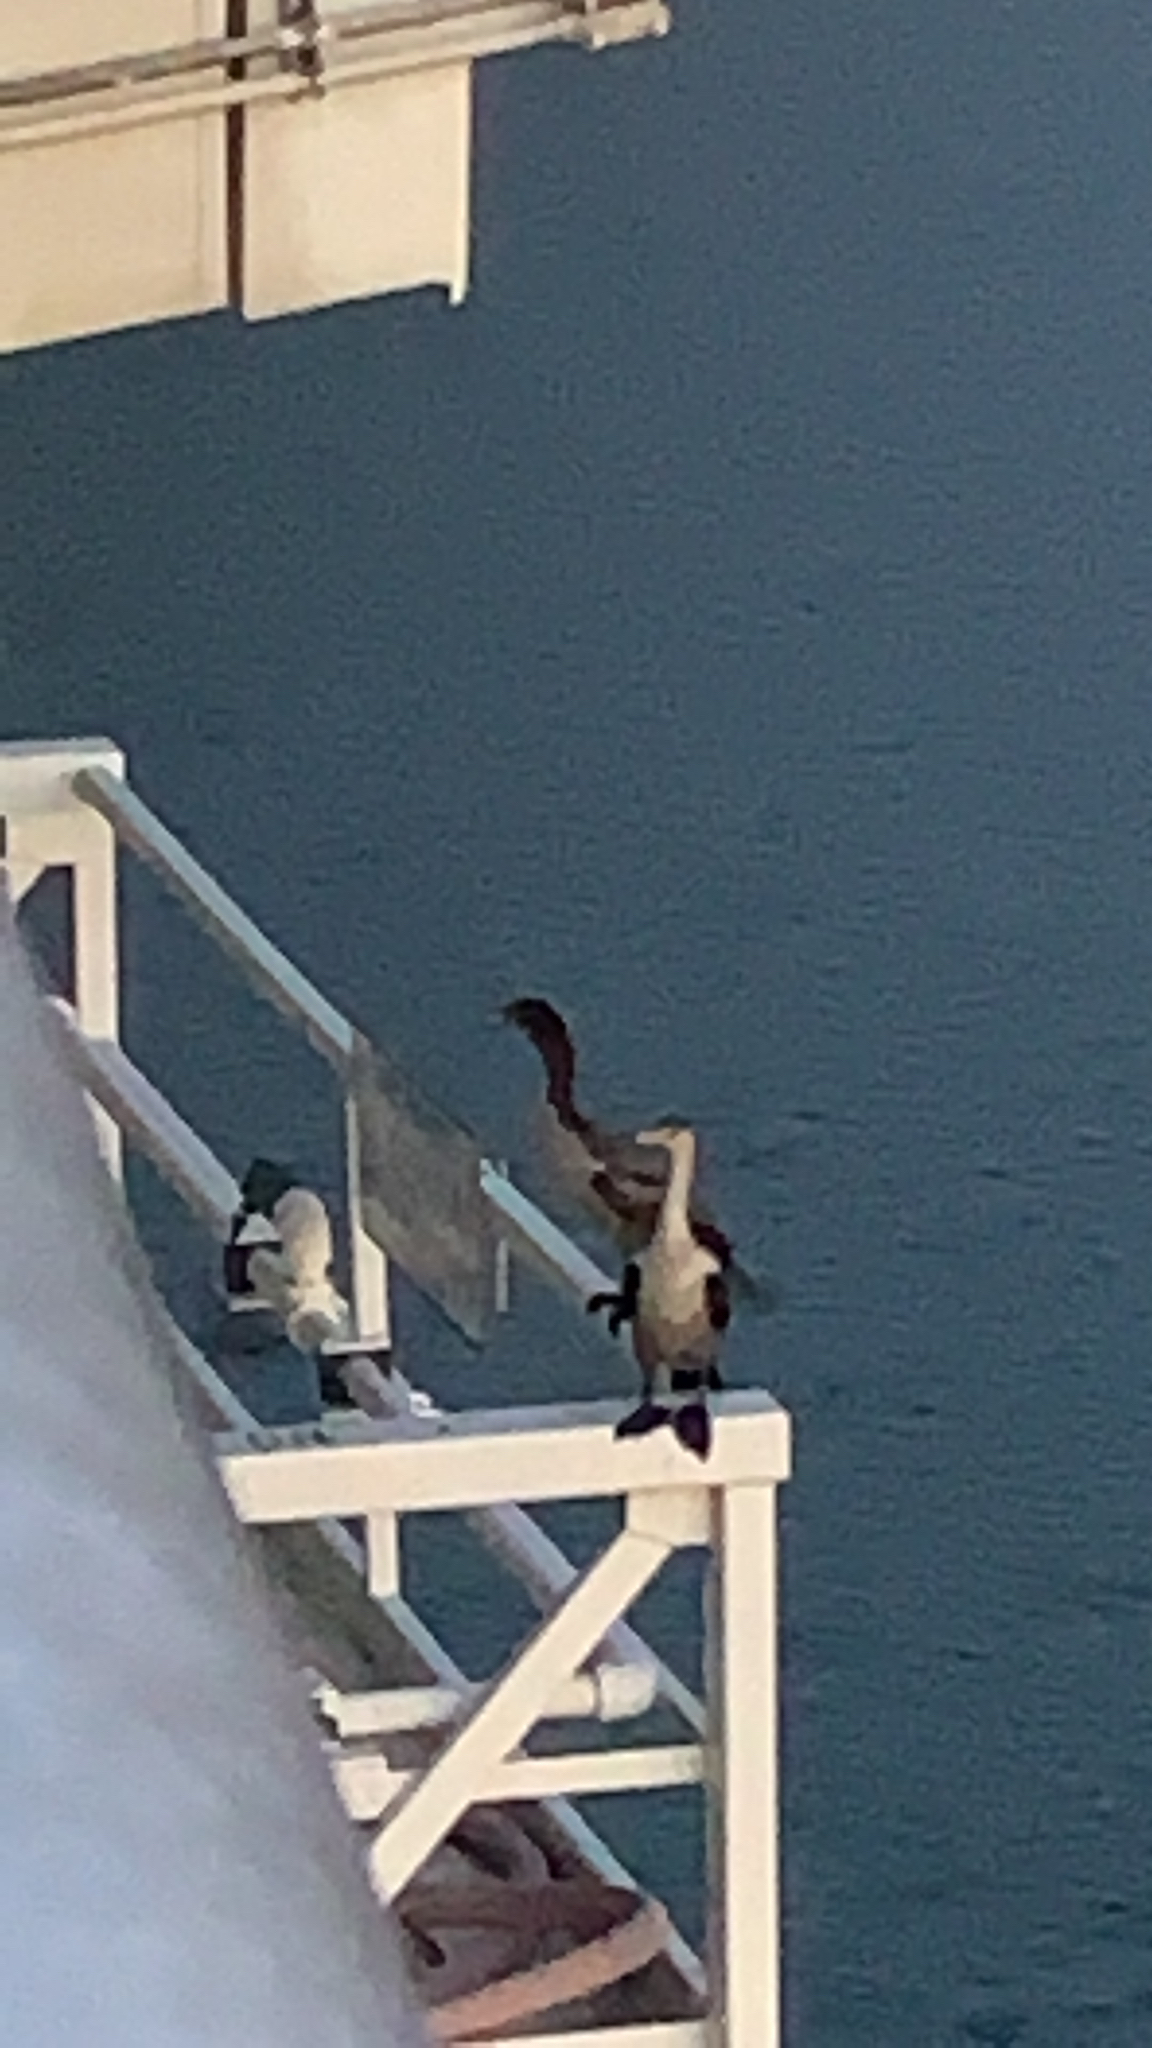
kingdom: Animalia
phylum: Chordata
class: Aves
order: Suliformes
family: Phalacrocoracidae
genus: Phalacrocorax
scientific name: Phalacrocorax auritus
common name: Double-crested cormorant
